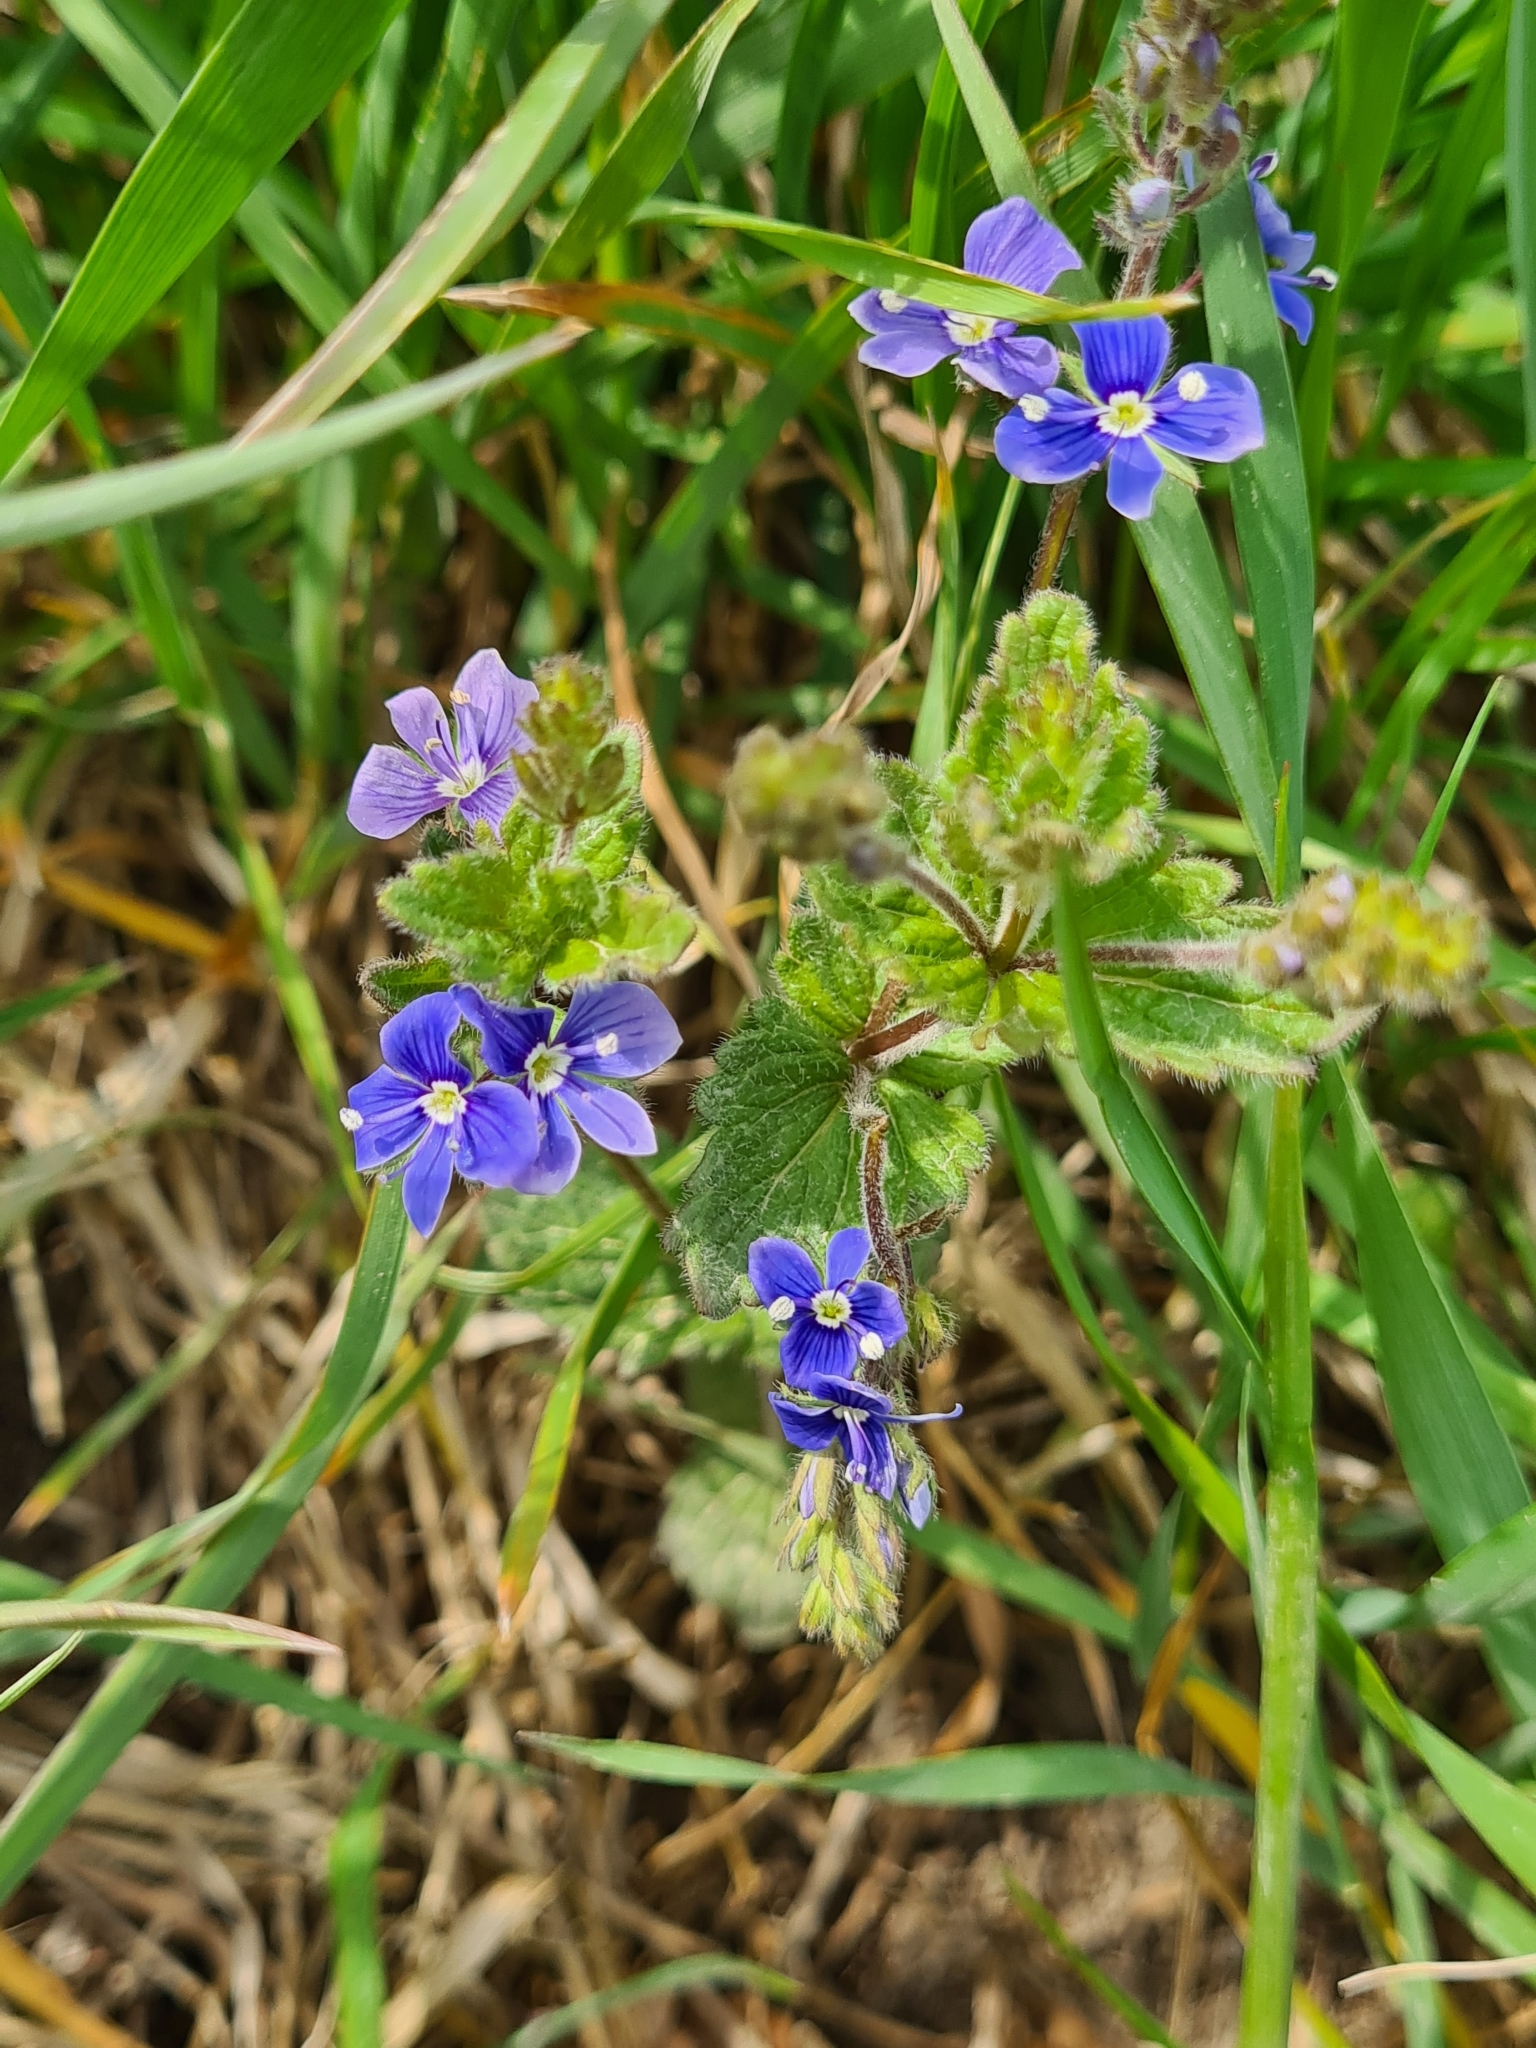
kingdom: Plantae
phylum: Tracheophyta
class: Magnoliopsida
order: Lamiales
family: Plantaginaceae
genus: Veronica
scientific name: Veronica chamaedrys
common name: Germander speedwell
